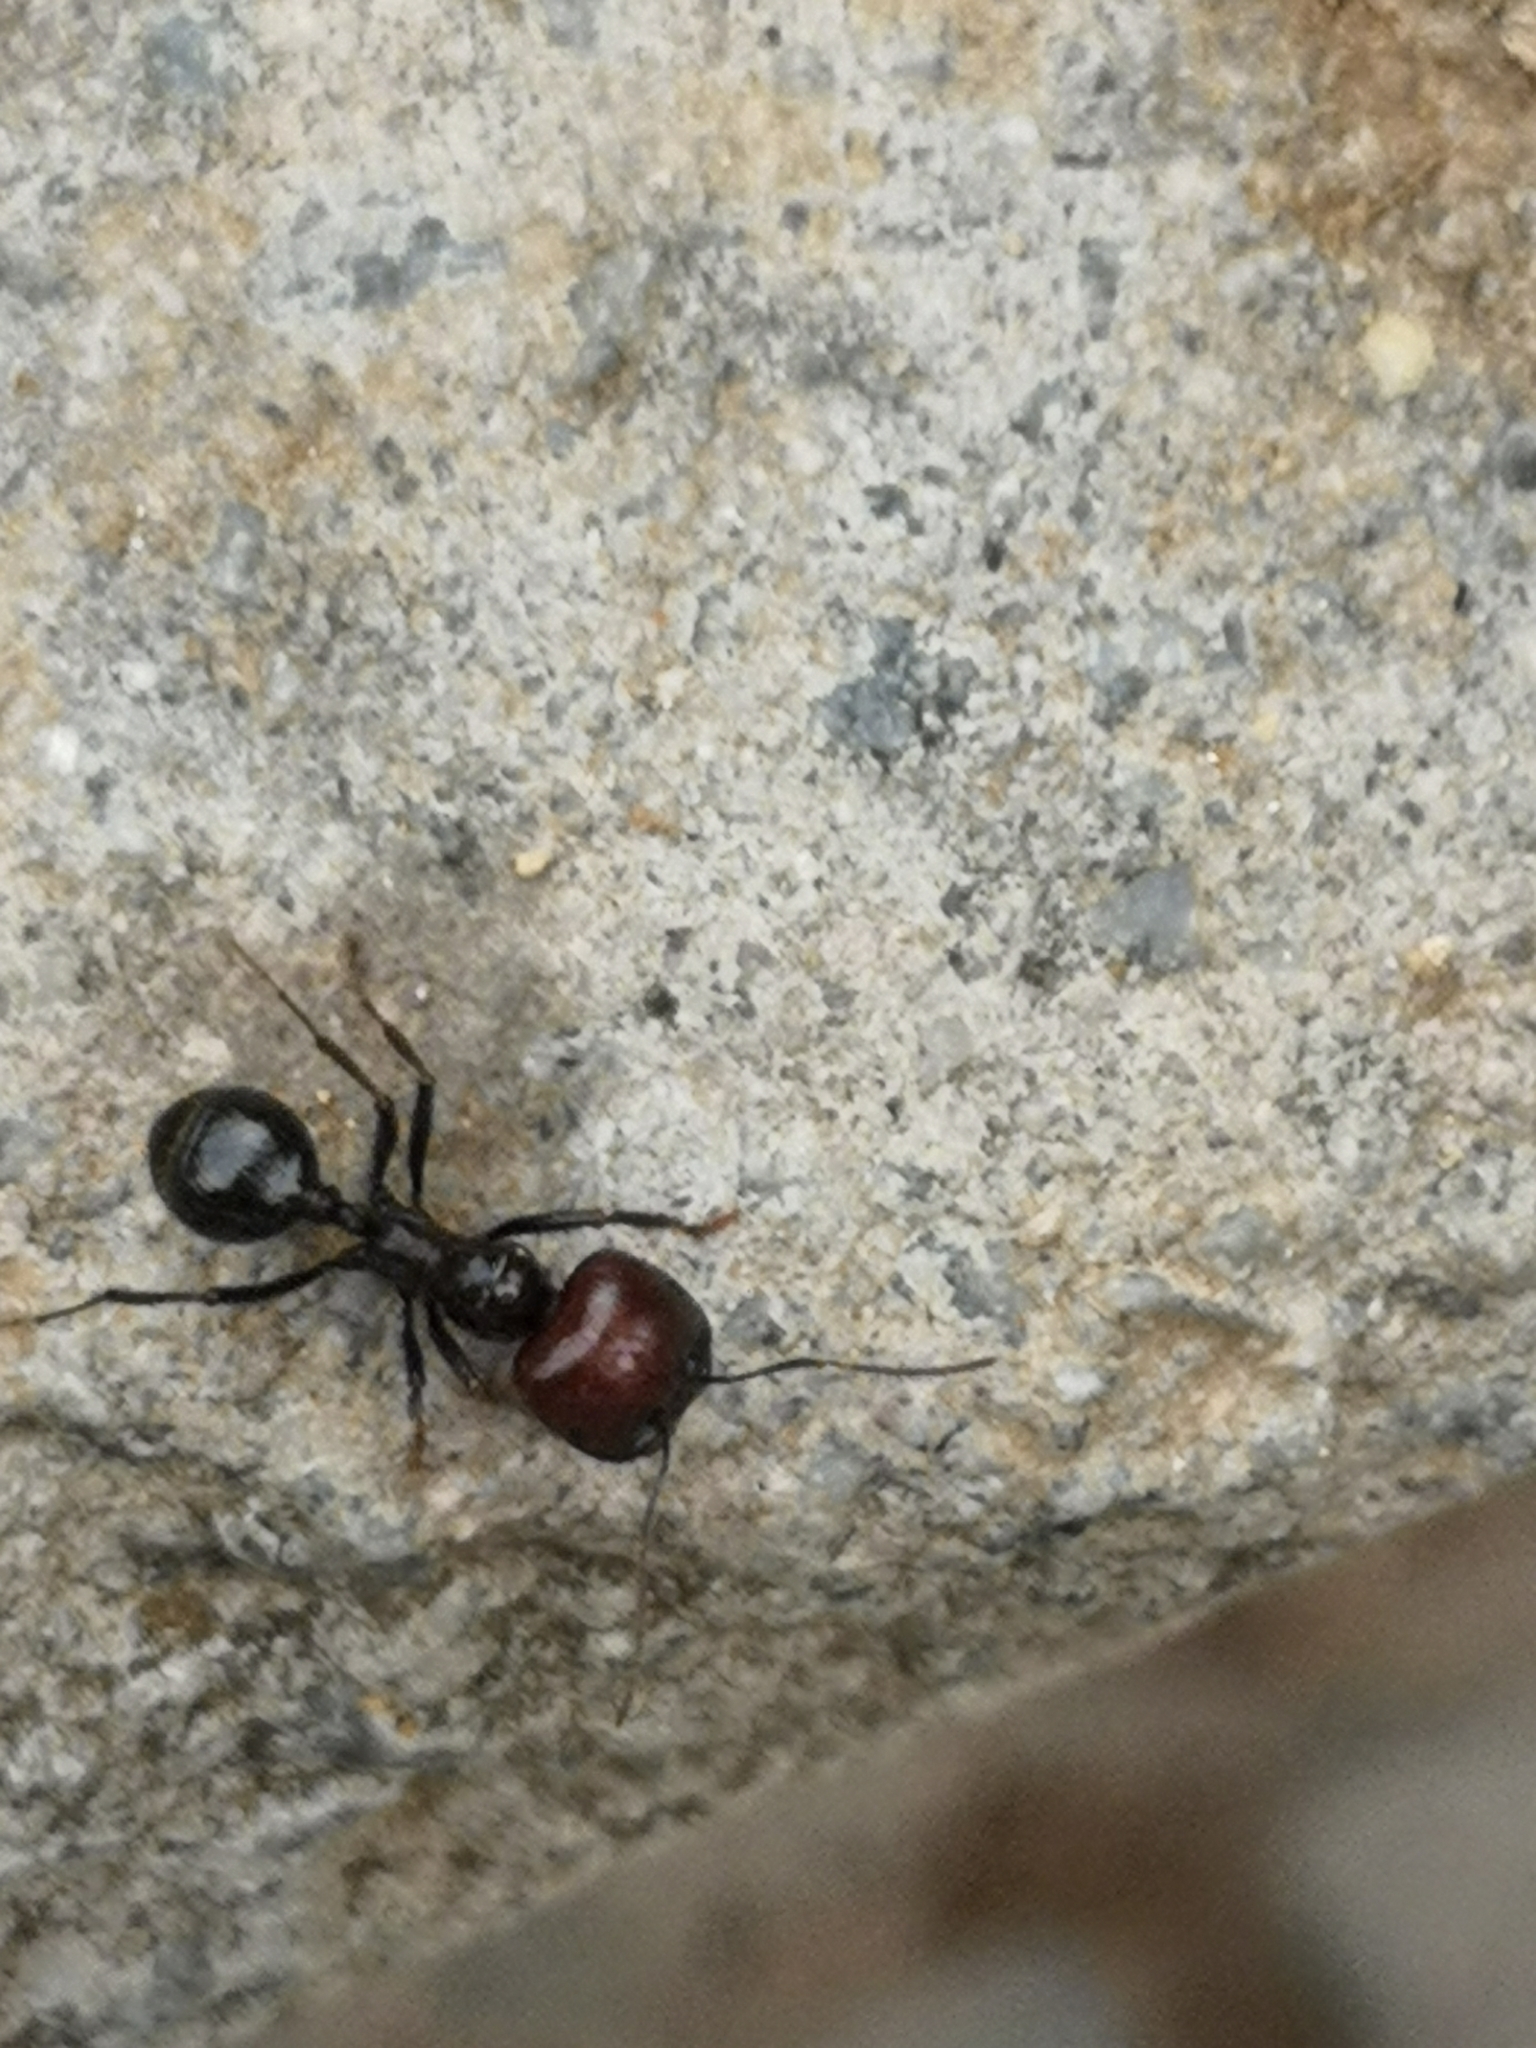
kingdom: Animalia
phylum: Arthropoda
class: Insecta
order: Hymenoptera
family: Formicidae
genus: Messor
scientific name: Messor barbarus
